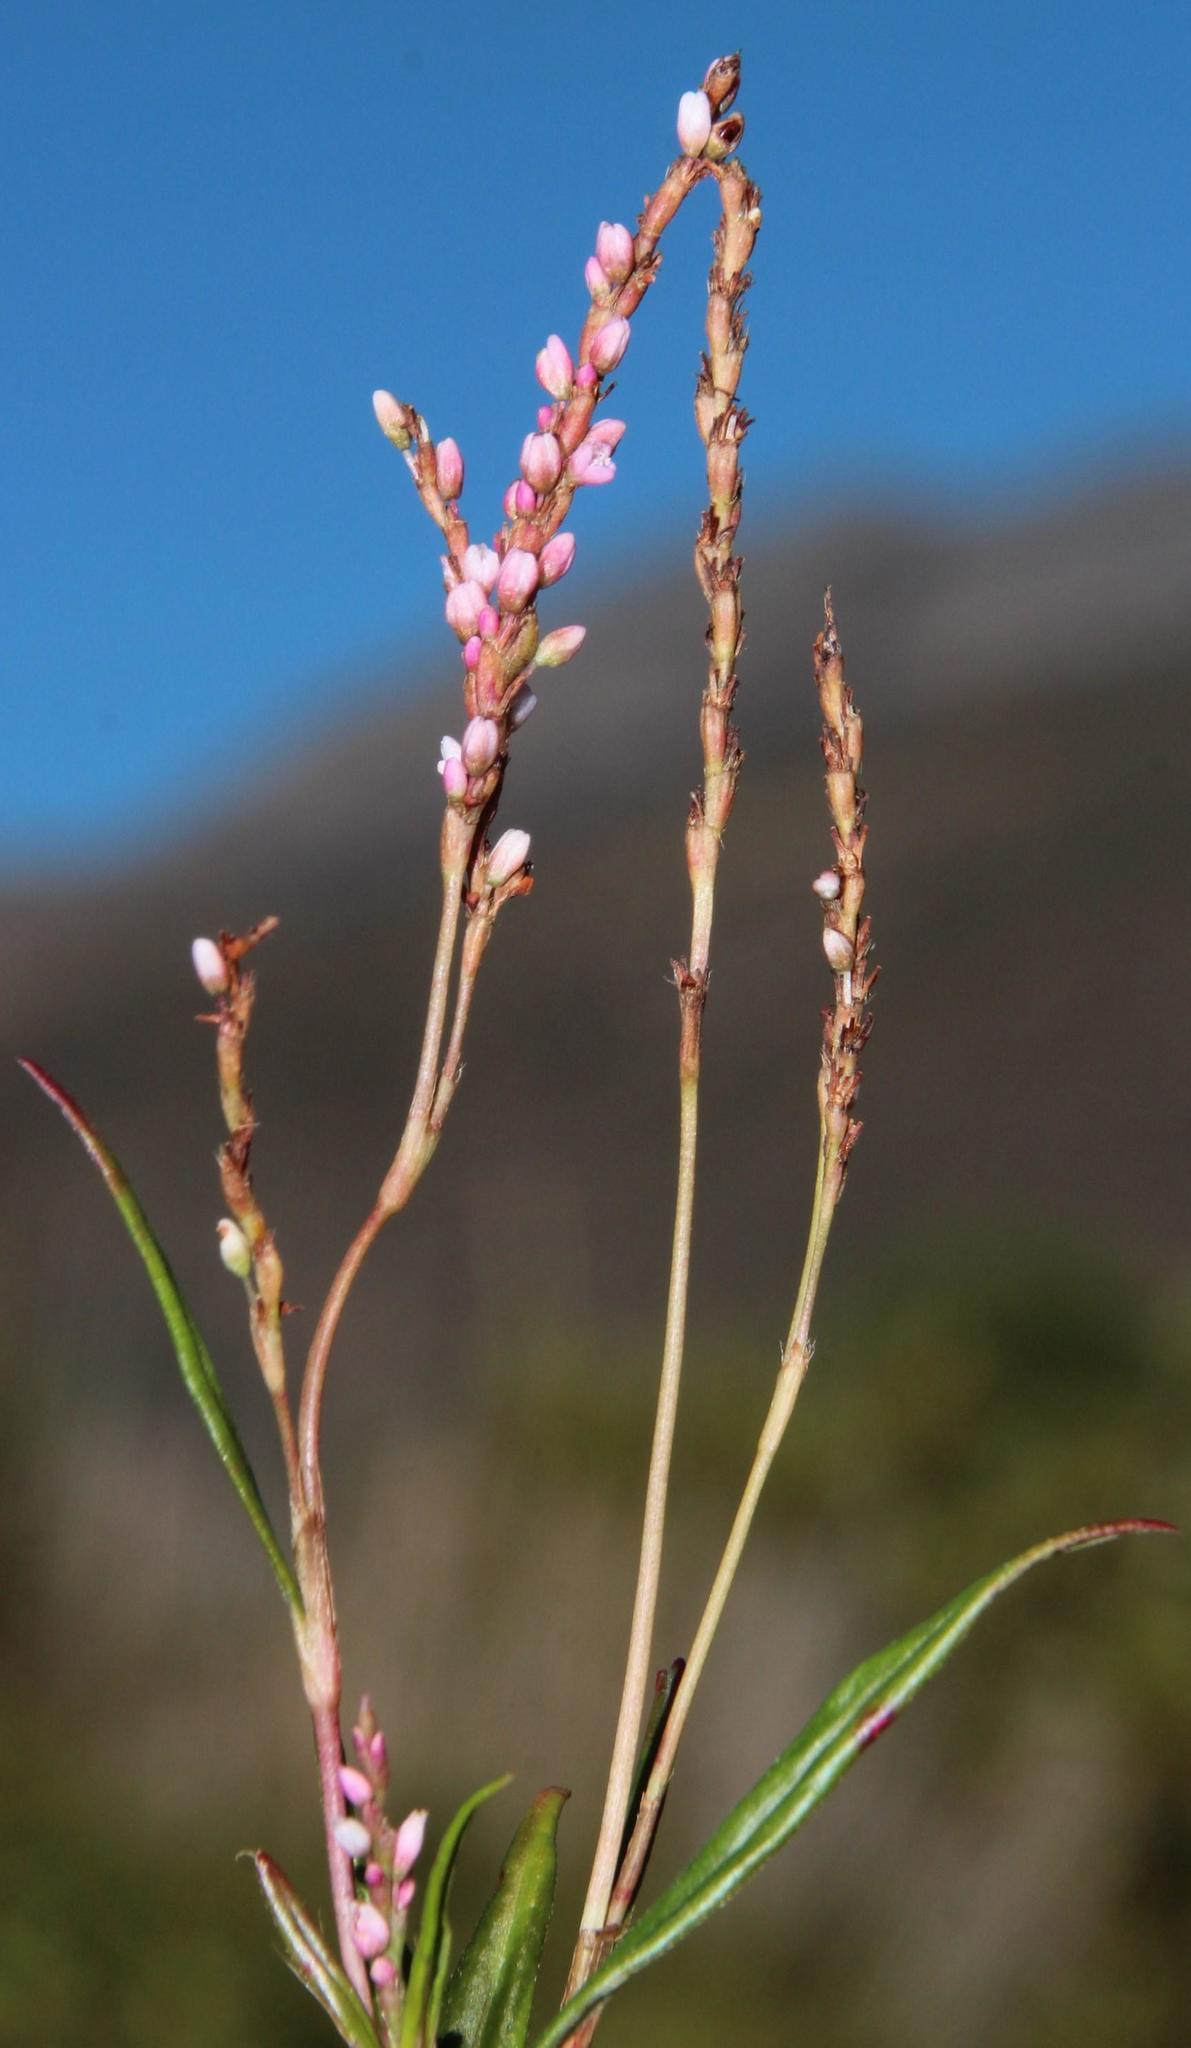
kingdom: Plantae
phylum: Tracheophyta
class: Magnoliopsida
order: Caryophyllales
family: Polygonaceae
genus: Persicaria
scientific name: Persicaria decipiens
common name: Willow-weed
